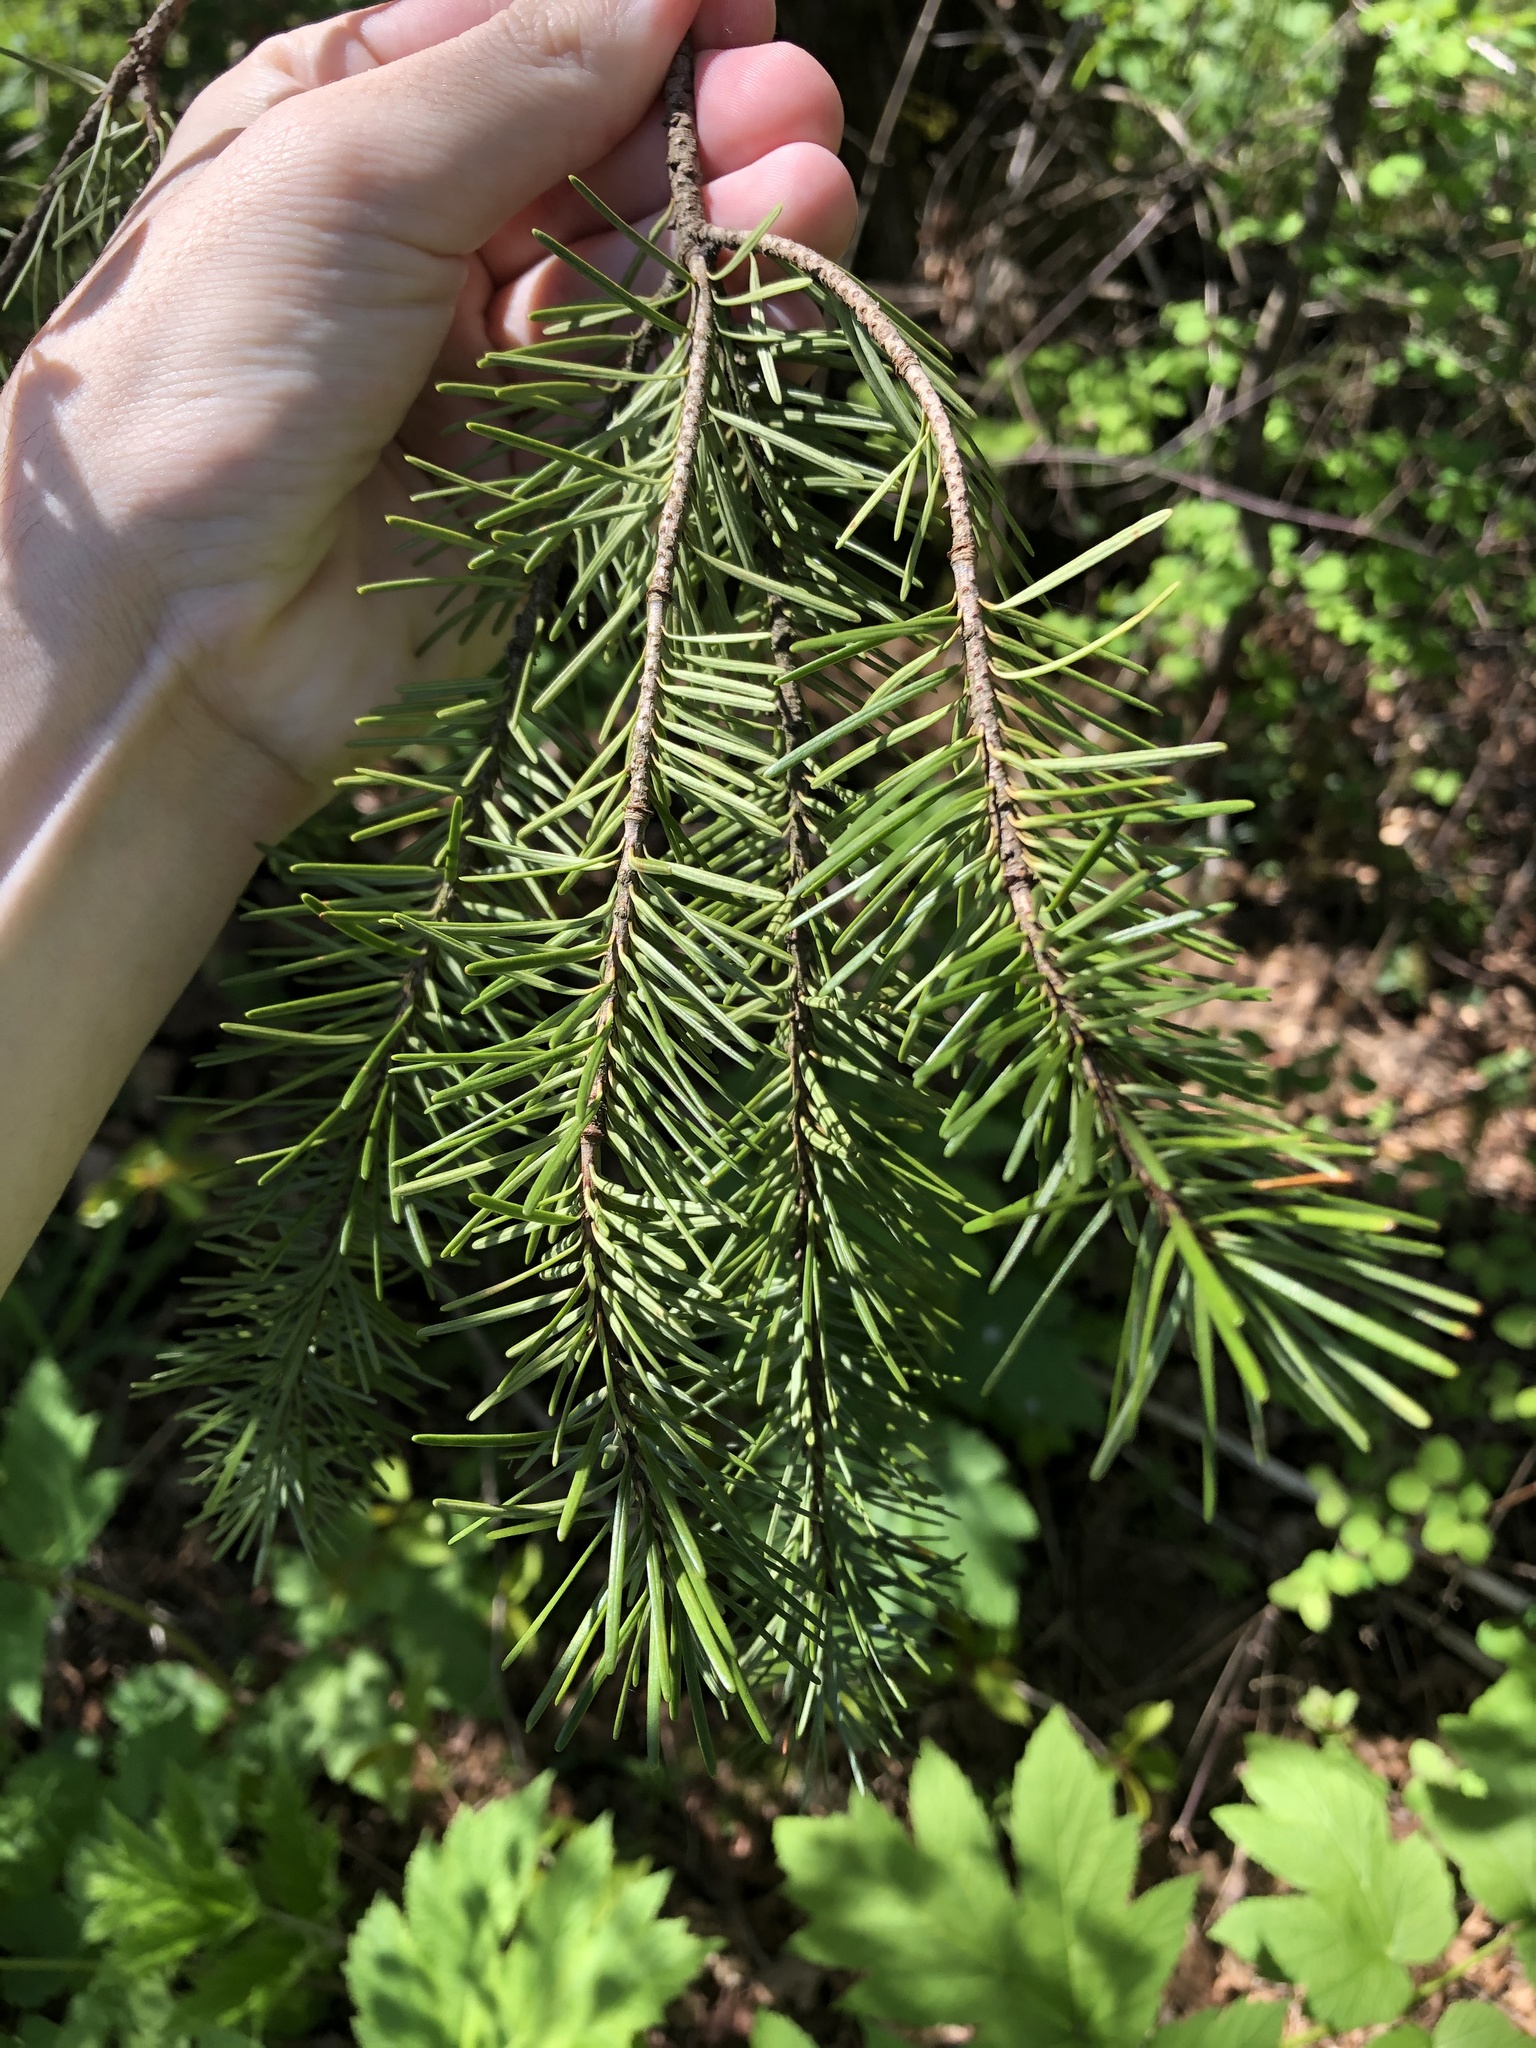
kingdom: Plantae
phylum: Tracheophyta
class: Pinopsida
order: Pinales
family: Pinaceae
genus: Pseudotsuga
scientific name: Pseudotsuga menziesii
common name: Douglas fir
